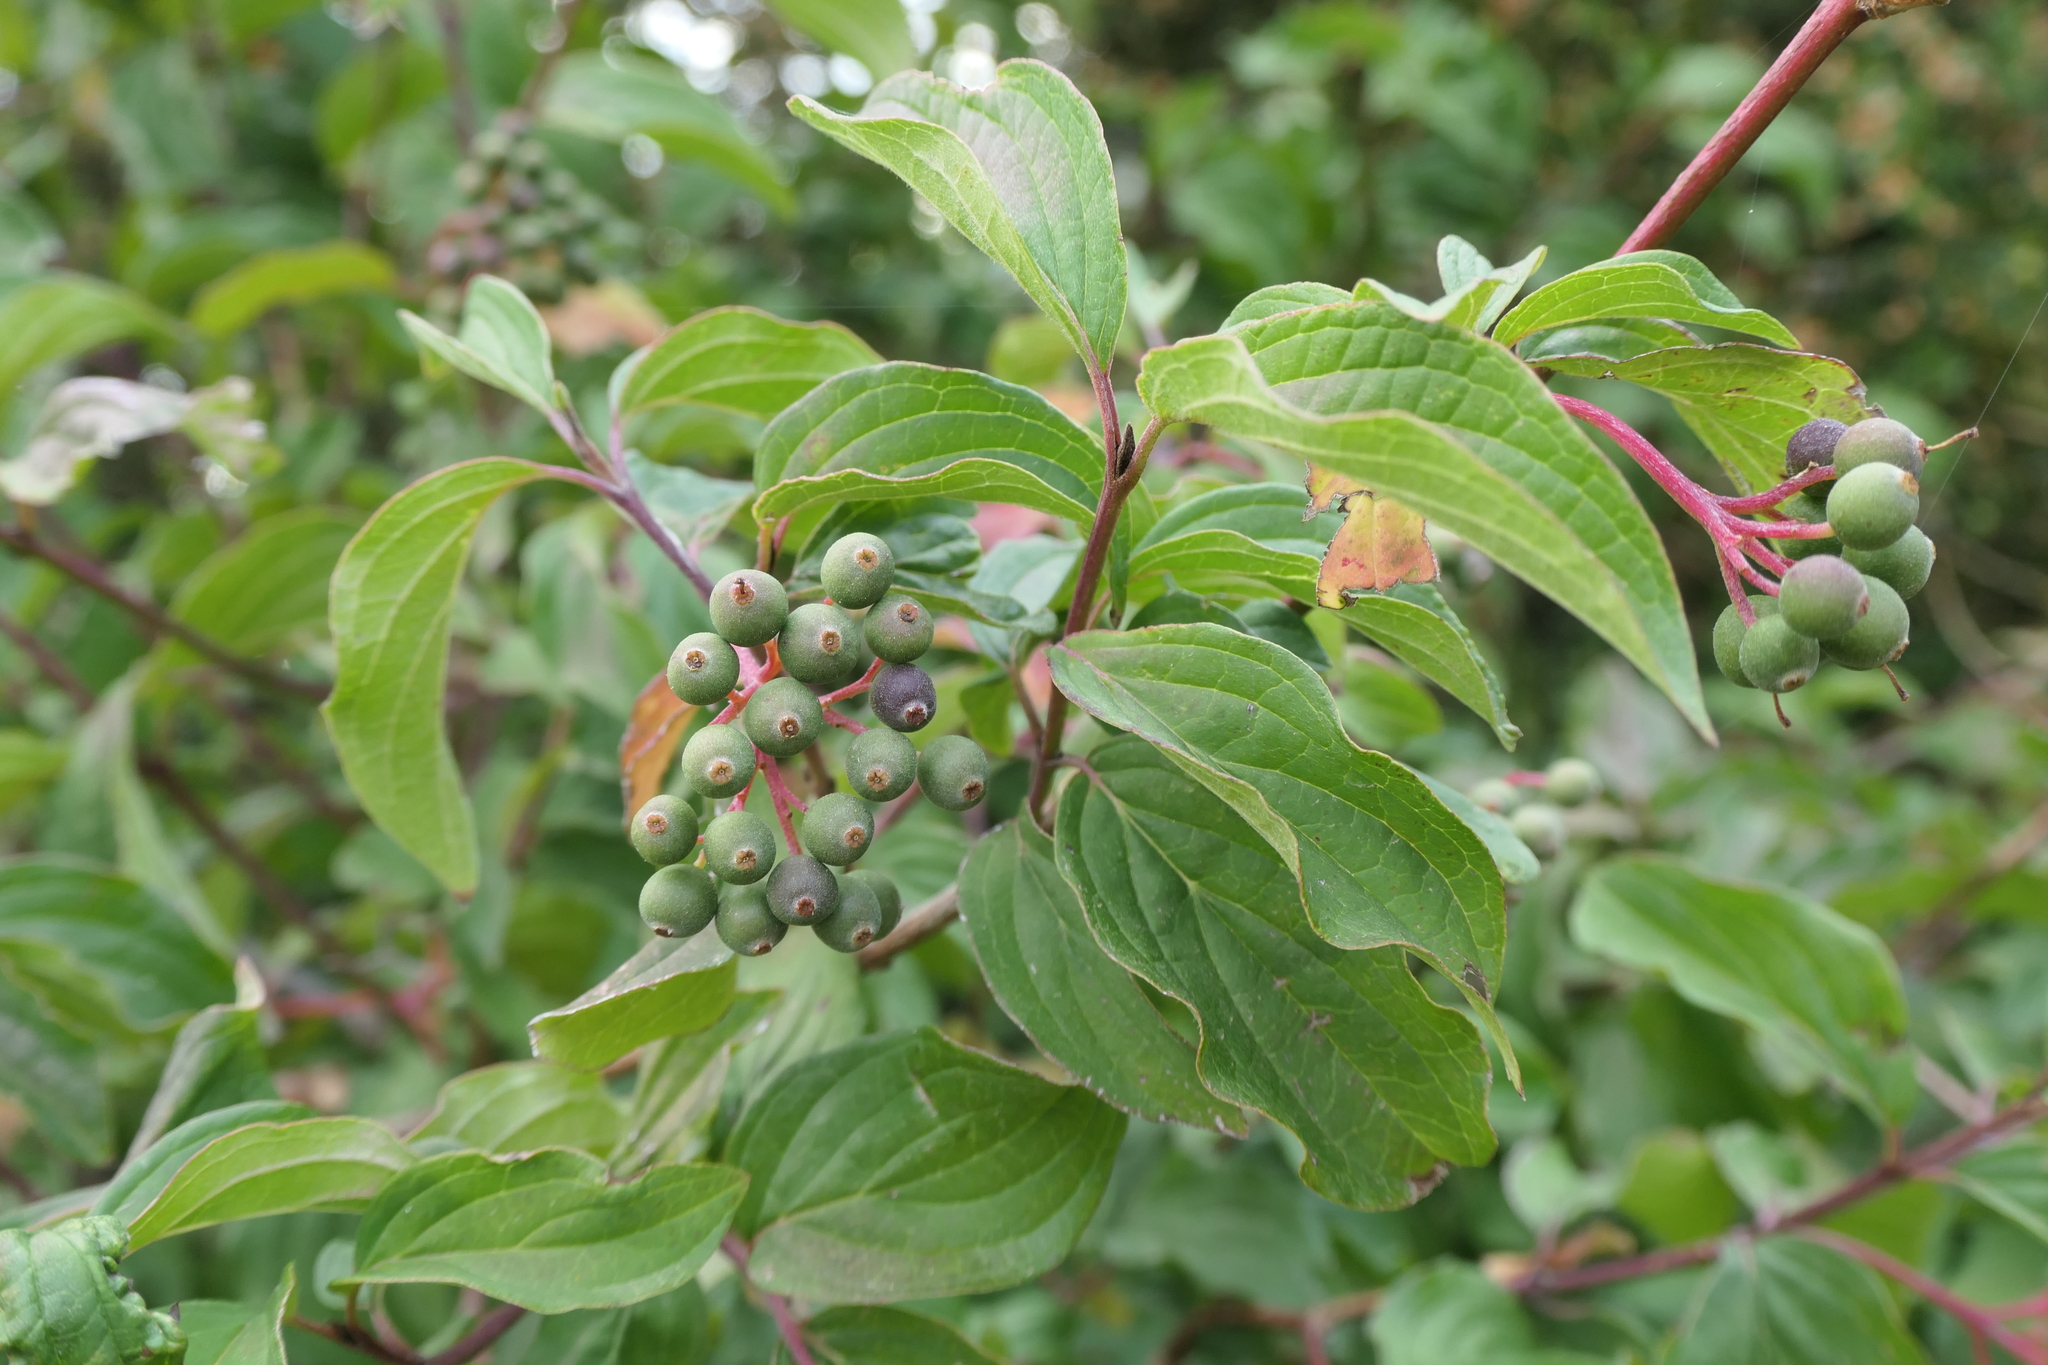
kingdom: Plantae
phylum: Tracheophyta
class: Magnoliopsida
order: Cornales
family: Cornaceae
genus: Cornus
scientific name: Cornus sanguinea
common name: Dogwood
